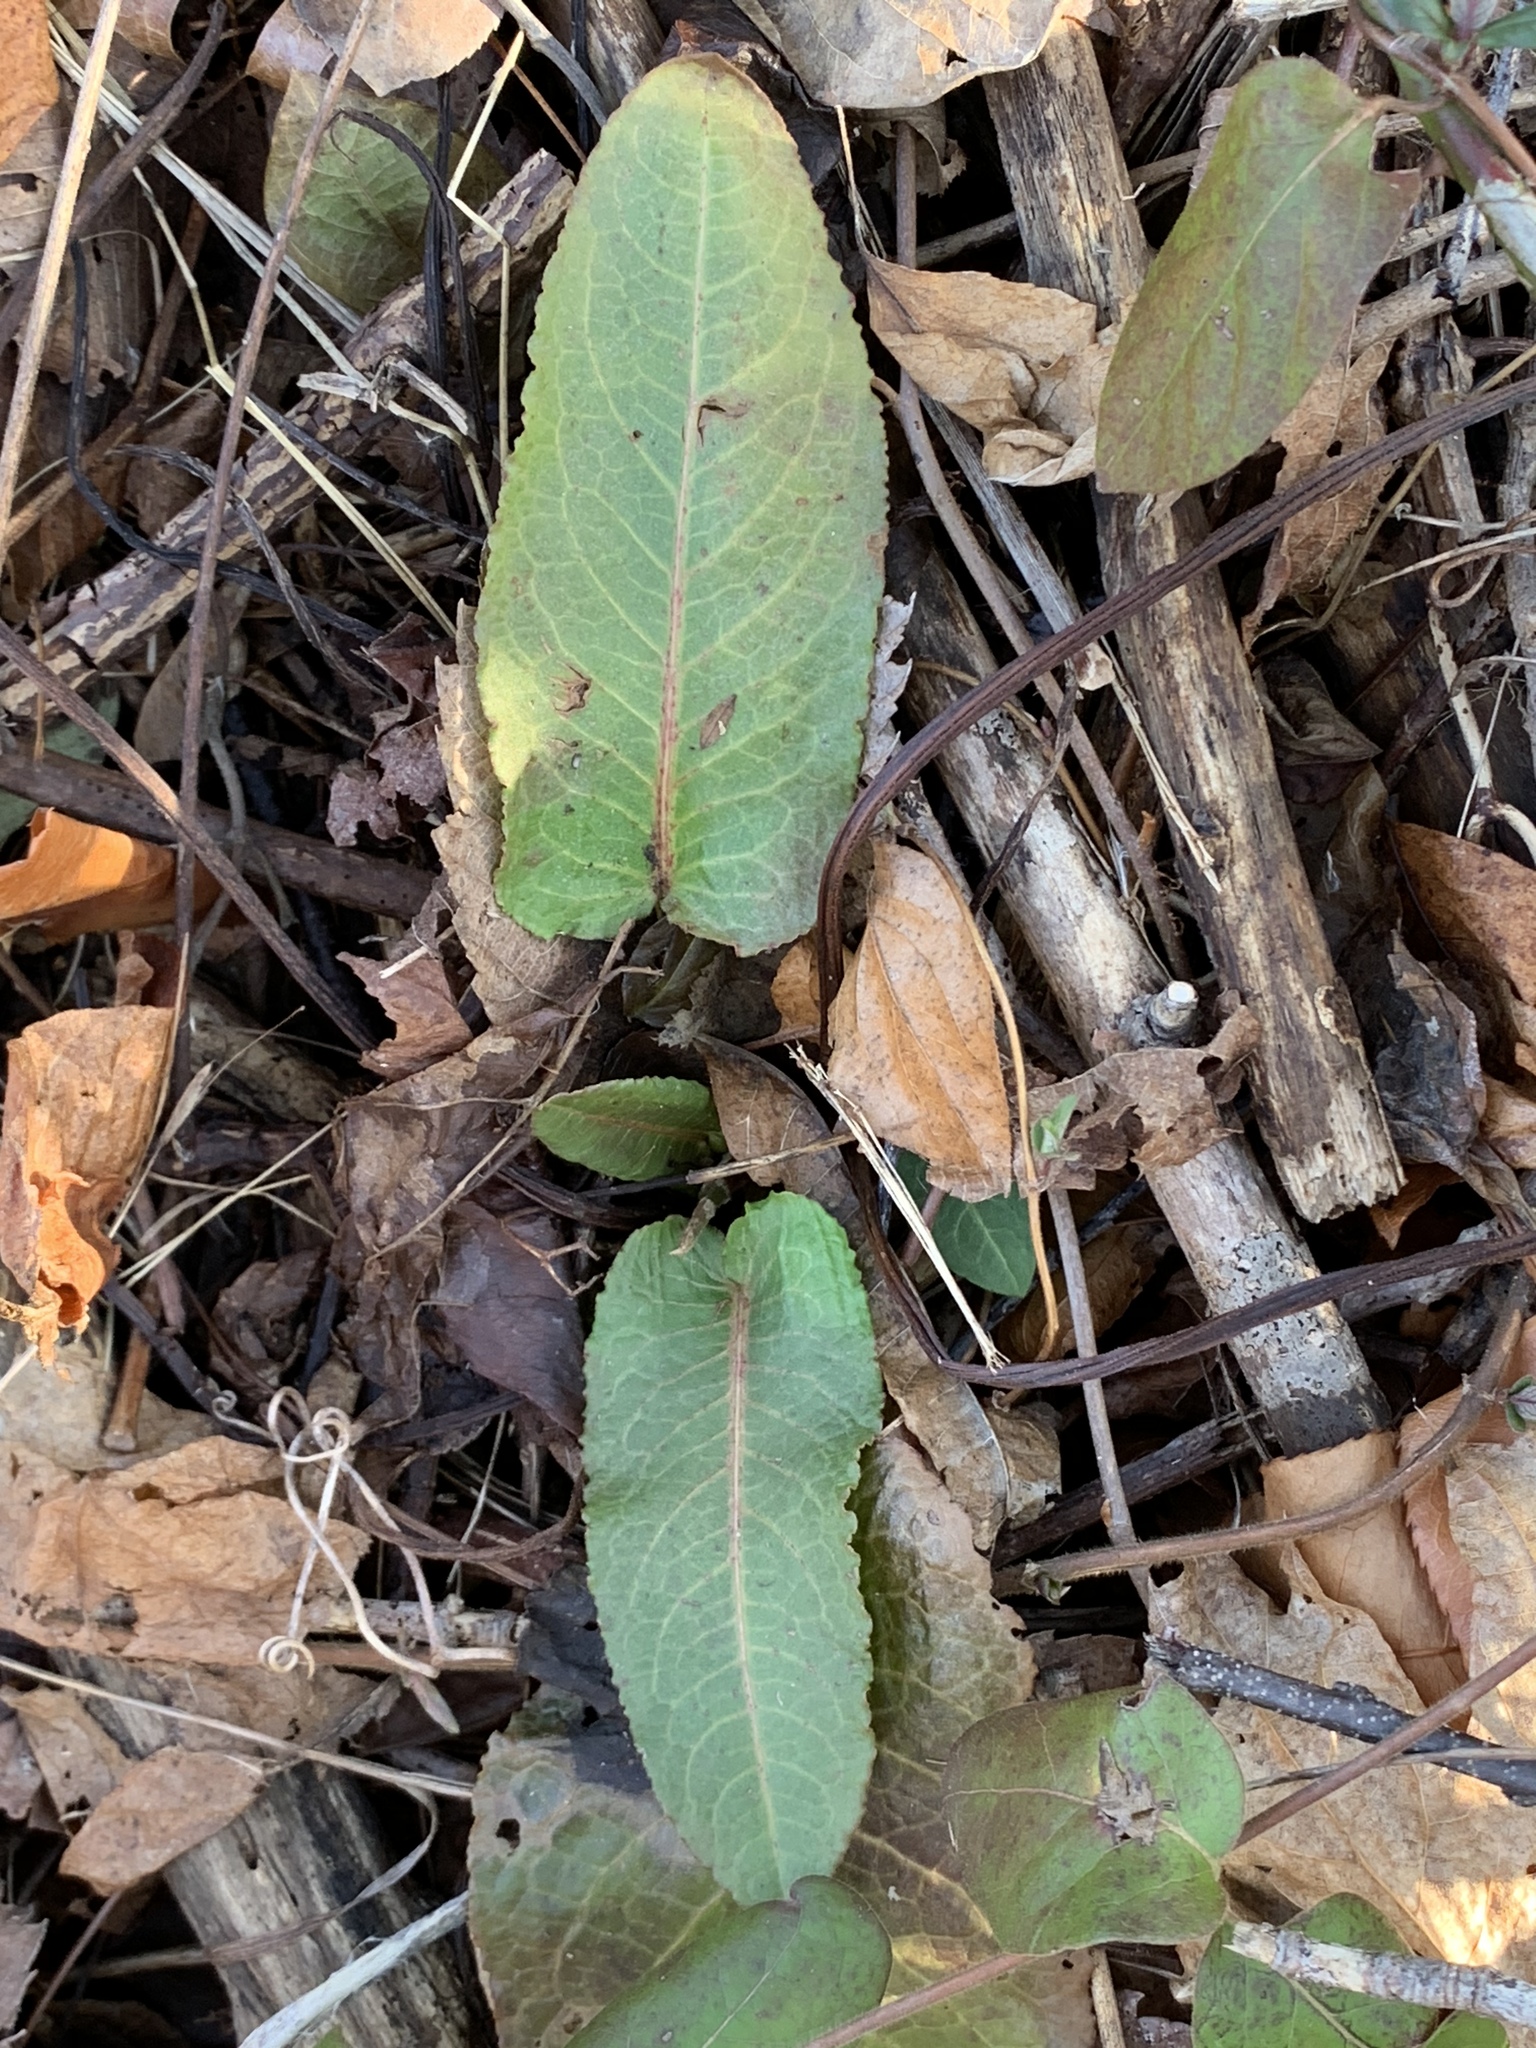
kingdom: Plantae
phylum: Tracheophyta
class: Magnoliopsida
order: Caryophyllales
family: Polygonaceae
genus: Rumex
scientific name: Rumex obtusifolius
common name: Bitter dock
